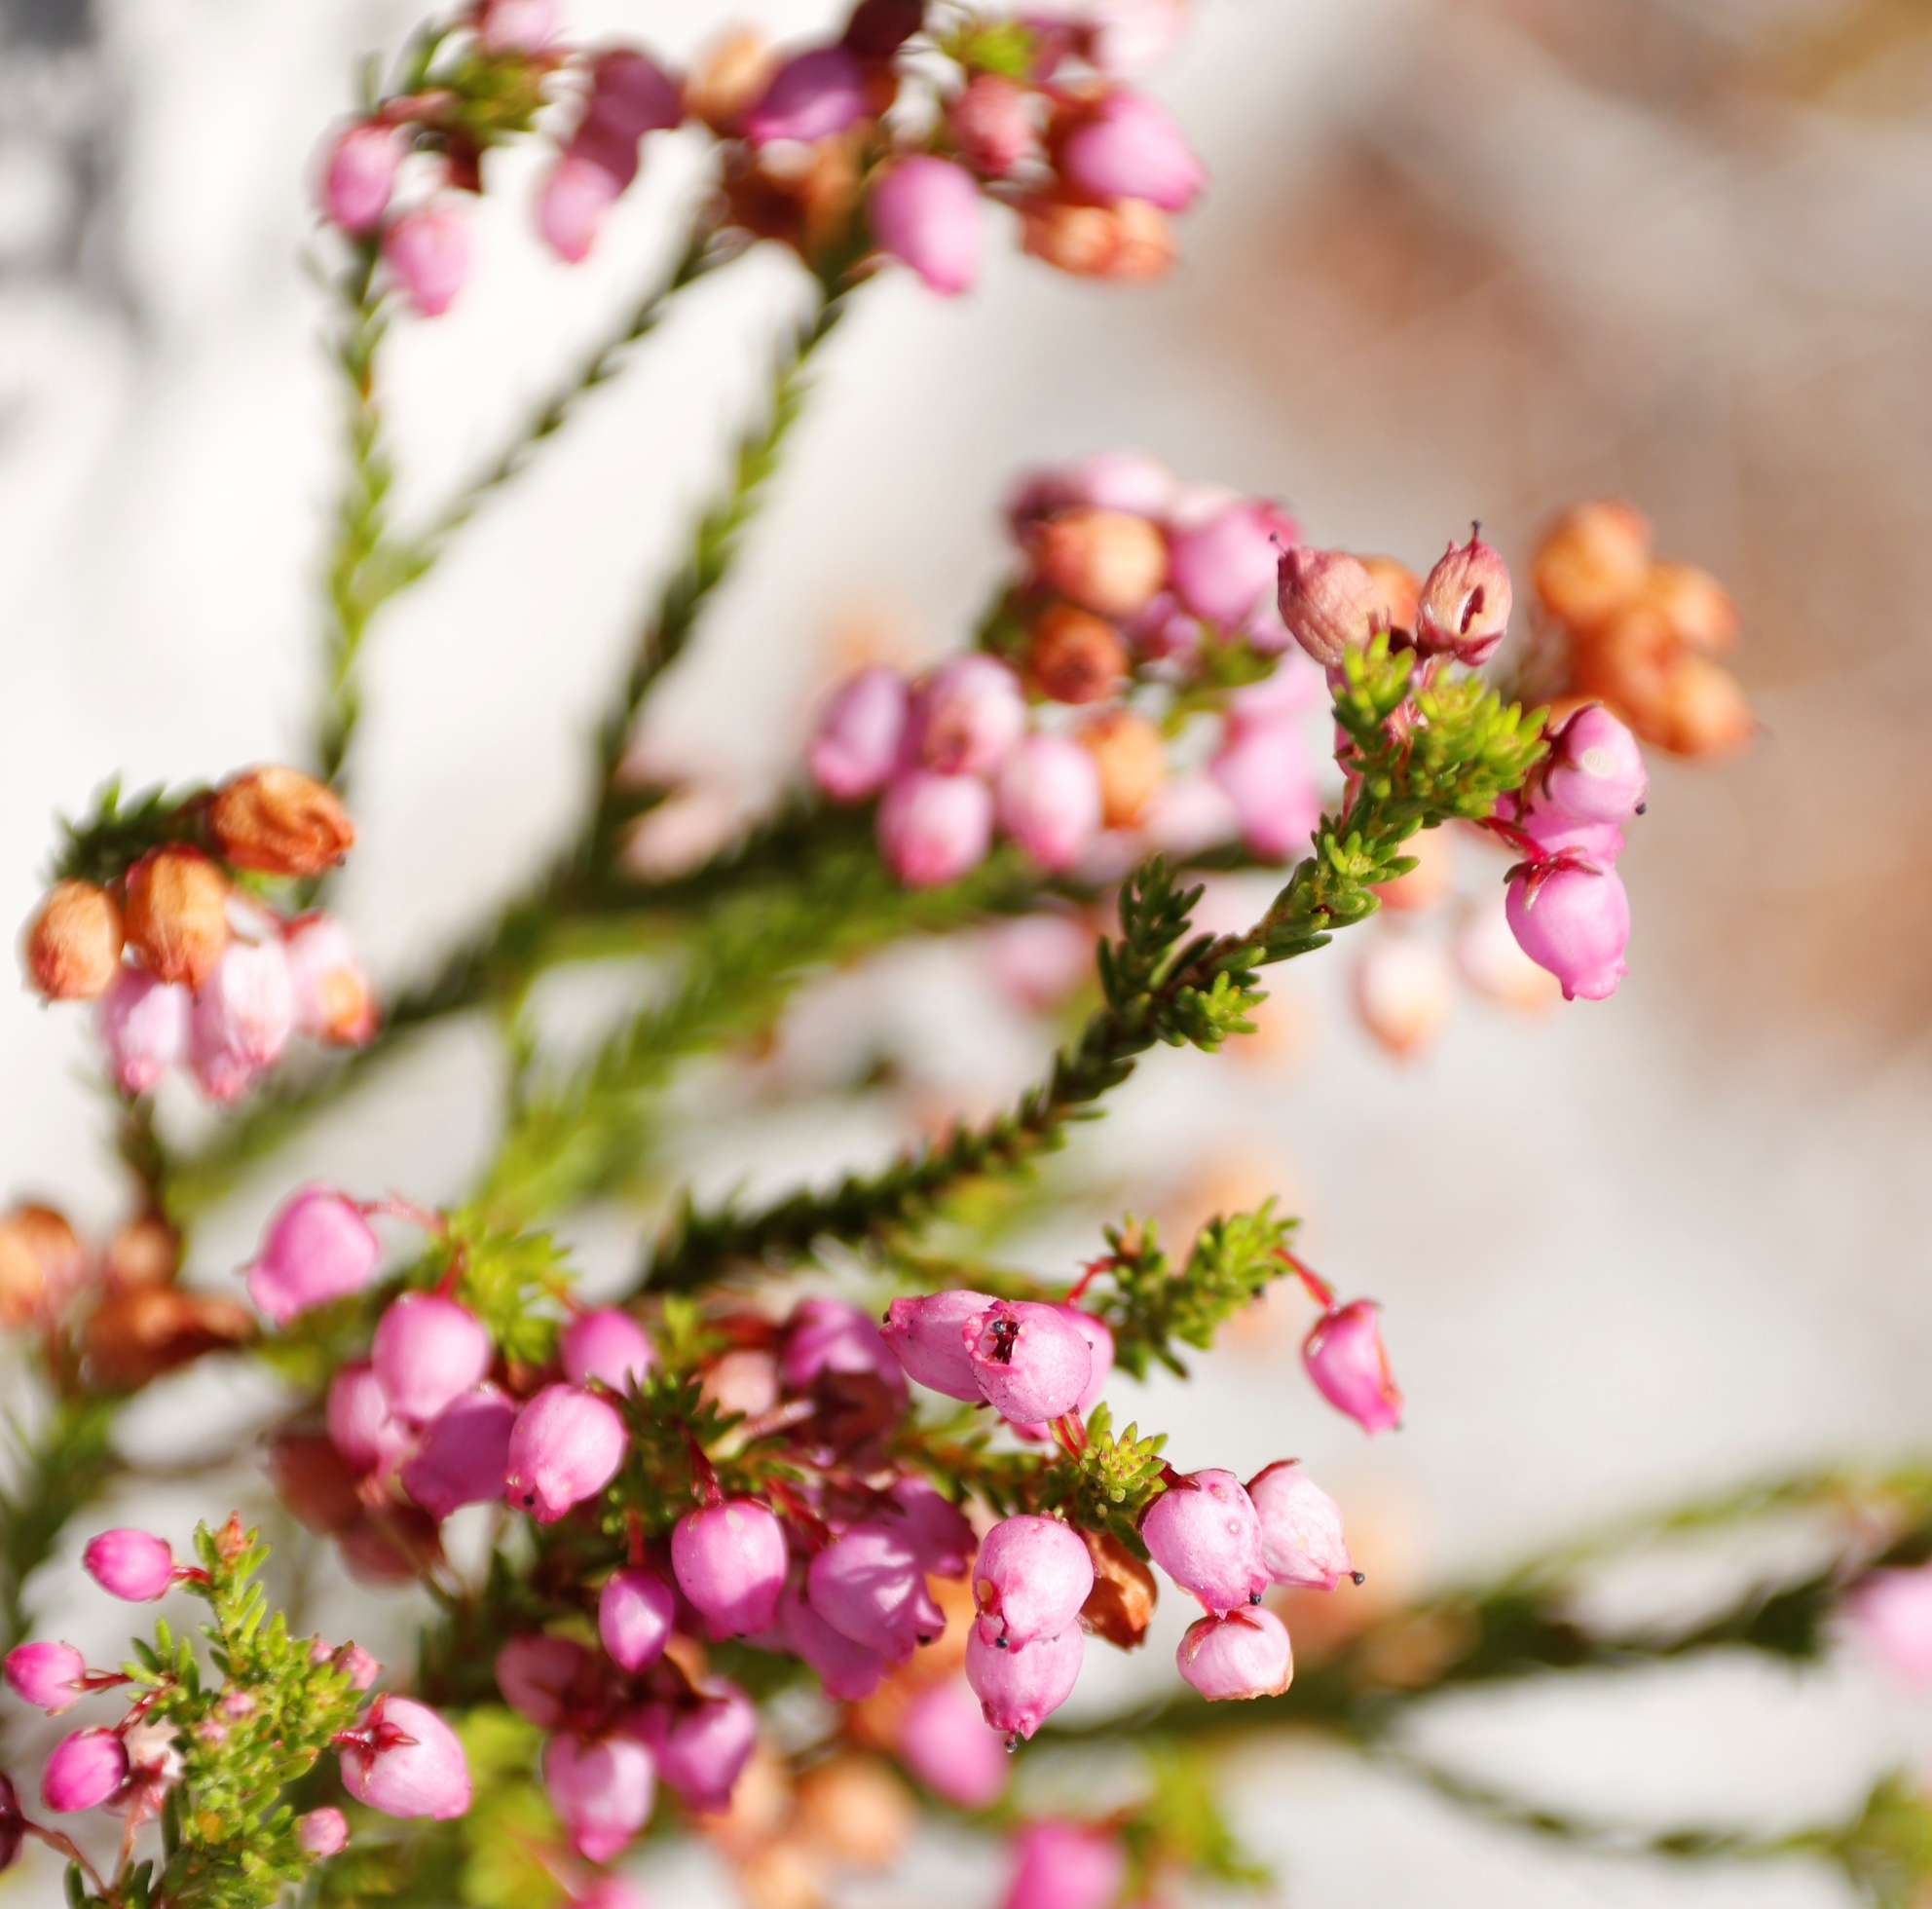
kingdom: Plantae
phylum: Tracheophyta
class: Magnoliopsida
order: Ericales
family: Ericaceae
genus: Erica
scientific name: Erica laeta
